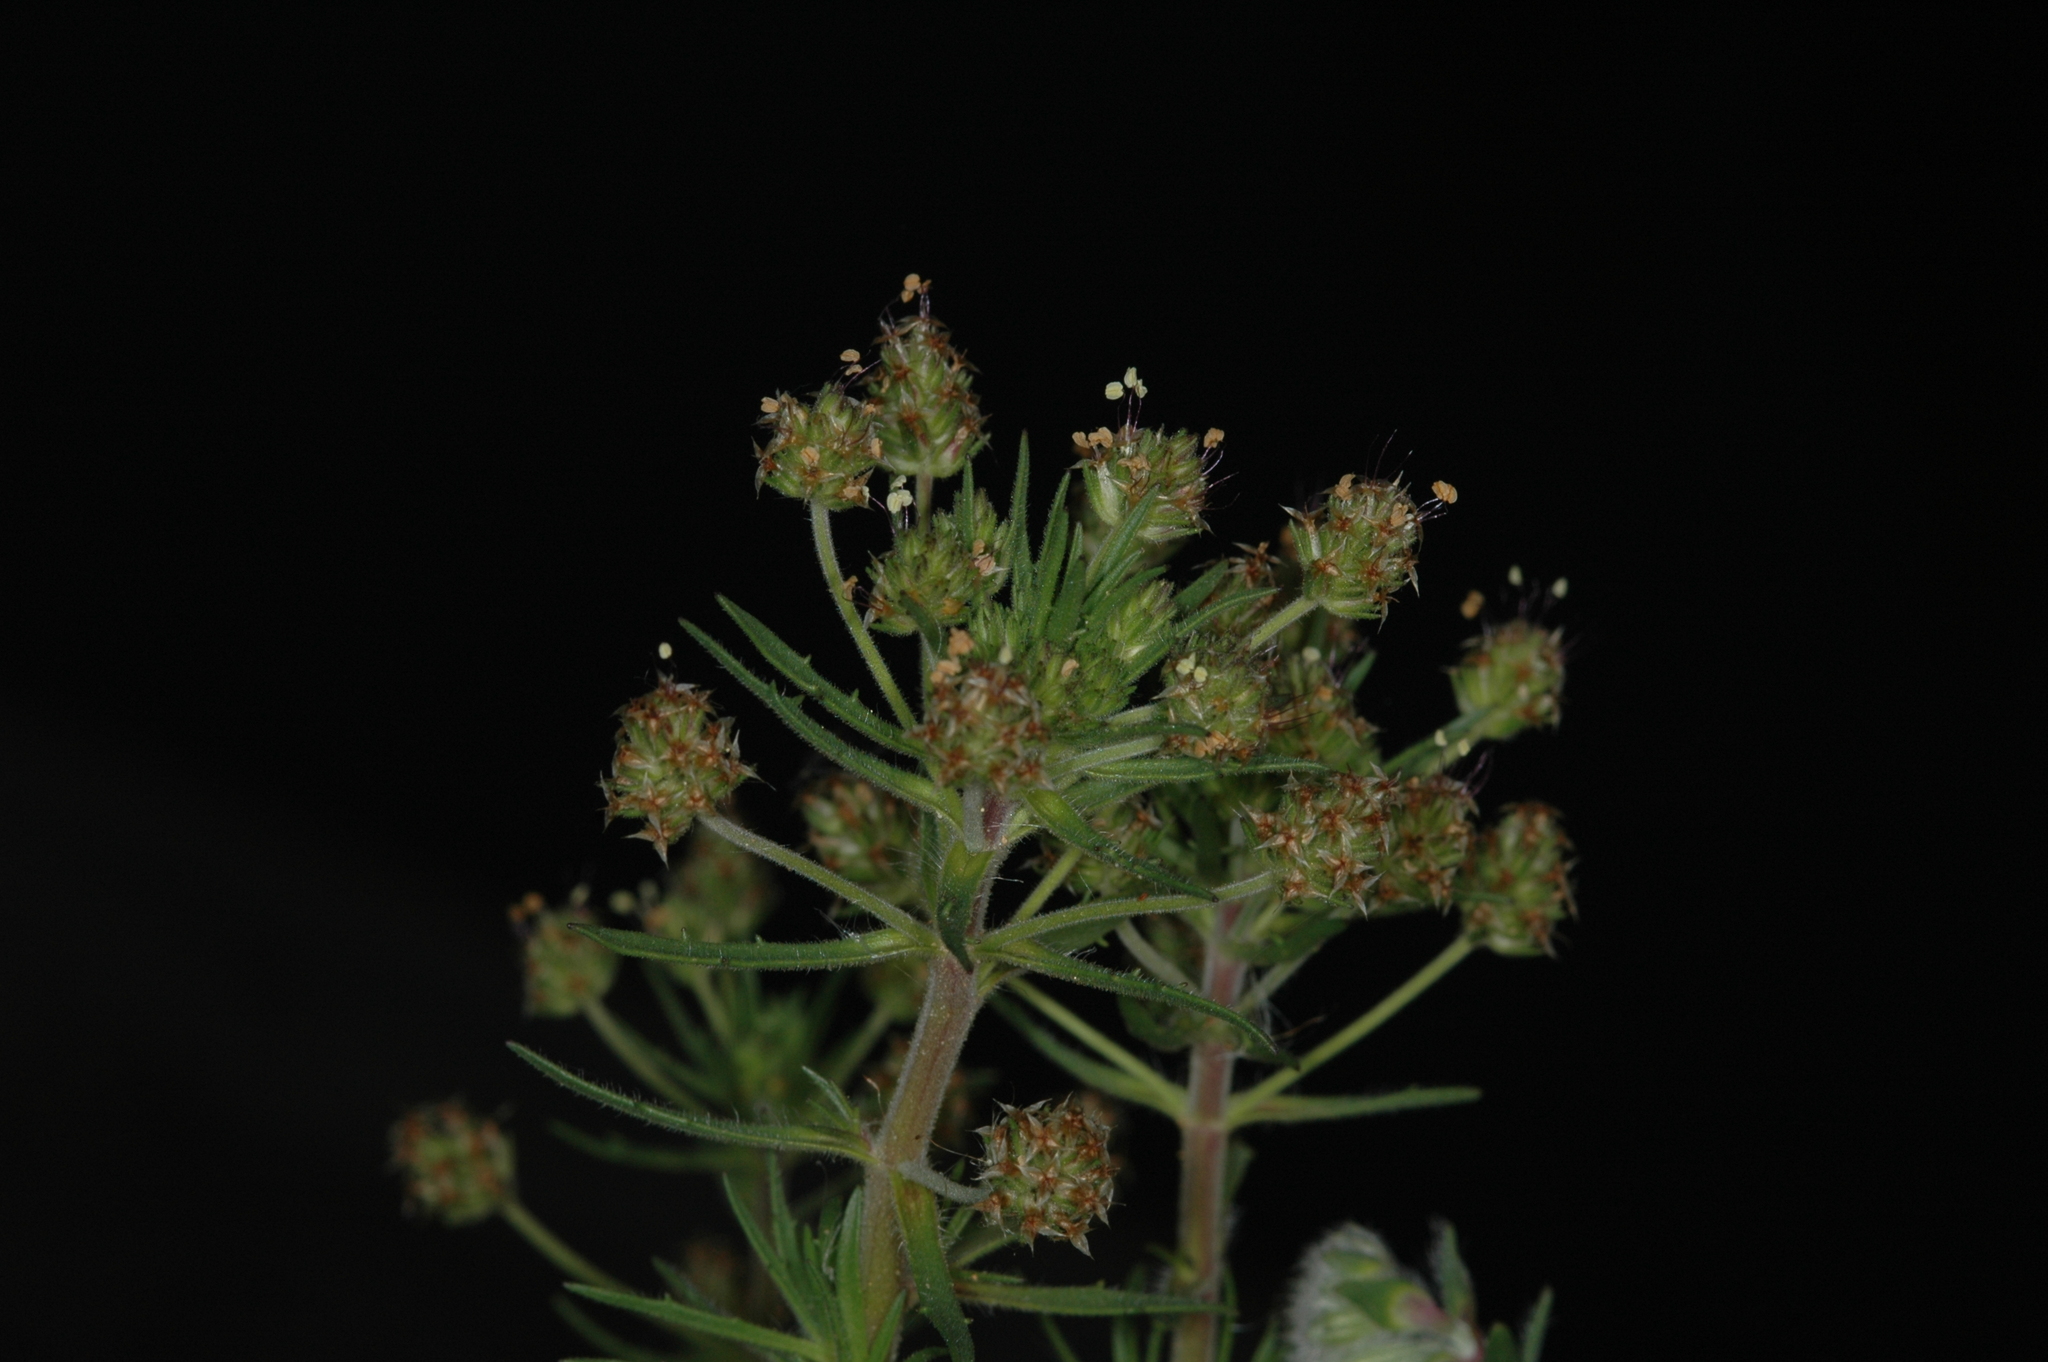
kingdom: Plantae
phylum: Tracheophyta
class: Magnoliopsida
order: Lamiales
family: Plantaginaceae
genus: Plantago
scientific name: Plantago afra
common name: Glandular plantain
